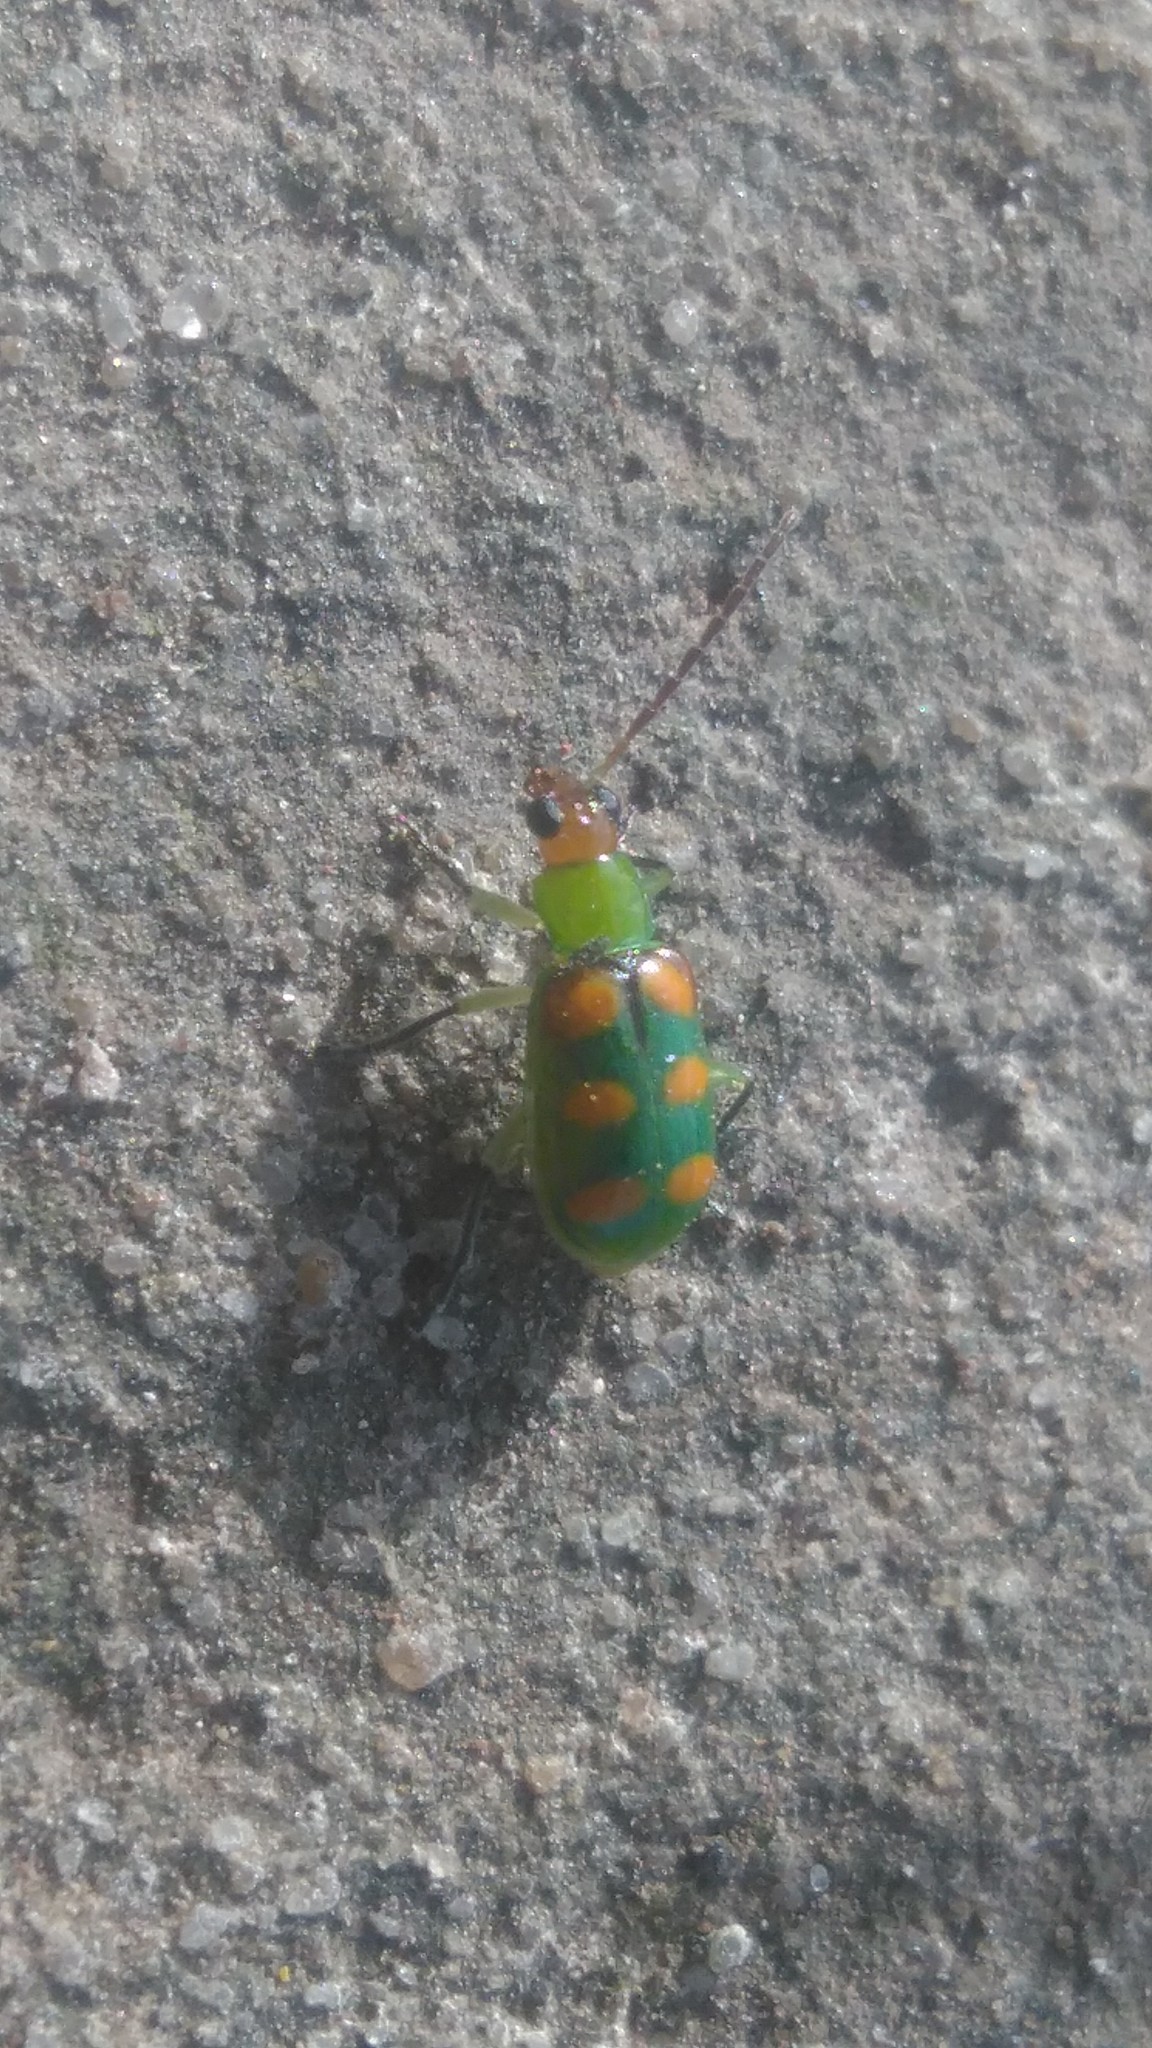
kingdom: Animalia
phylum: Arthropoda
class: Insecta
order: Coleoptera
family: Chrysomelidae
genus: Diabrotica
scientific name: Diabrotica speciosa
